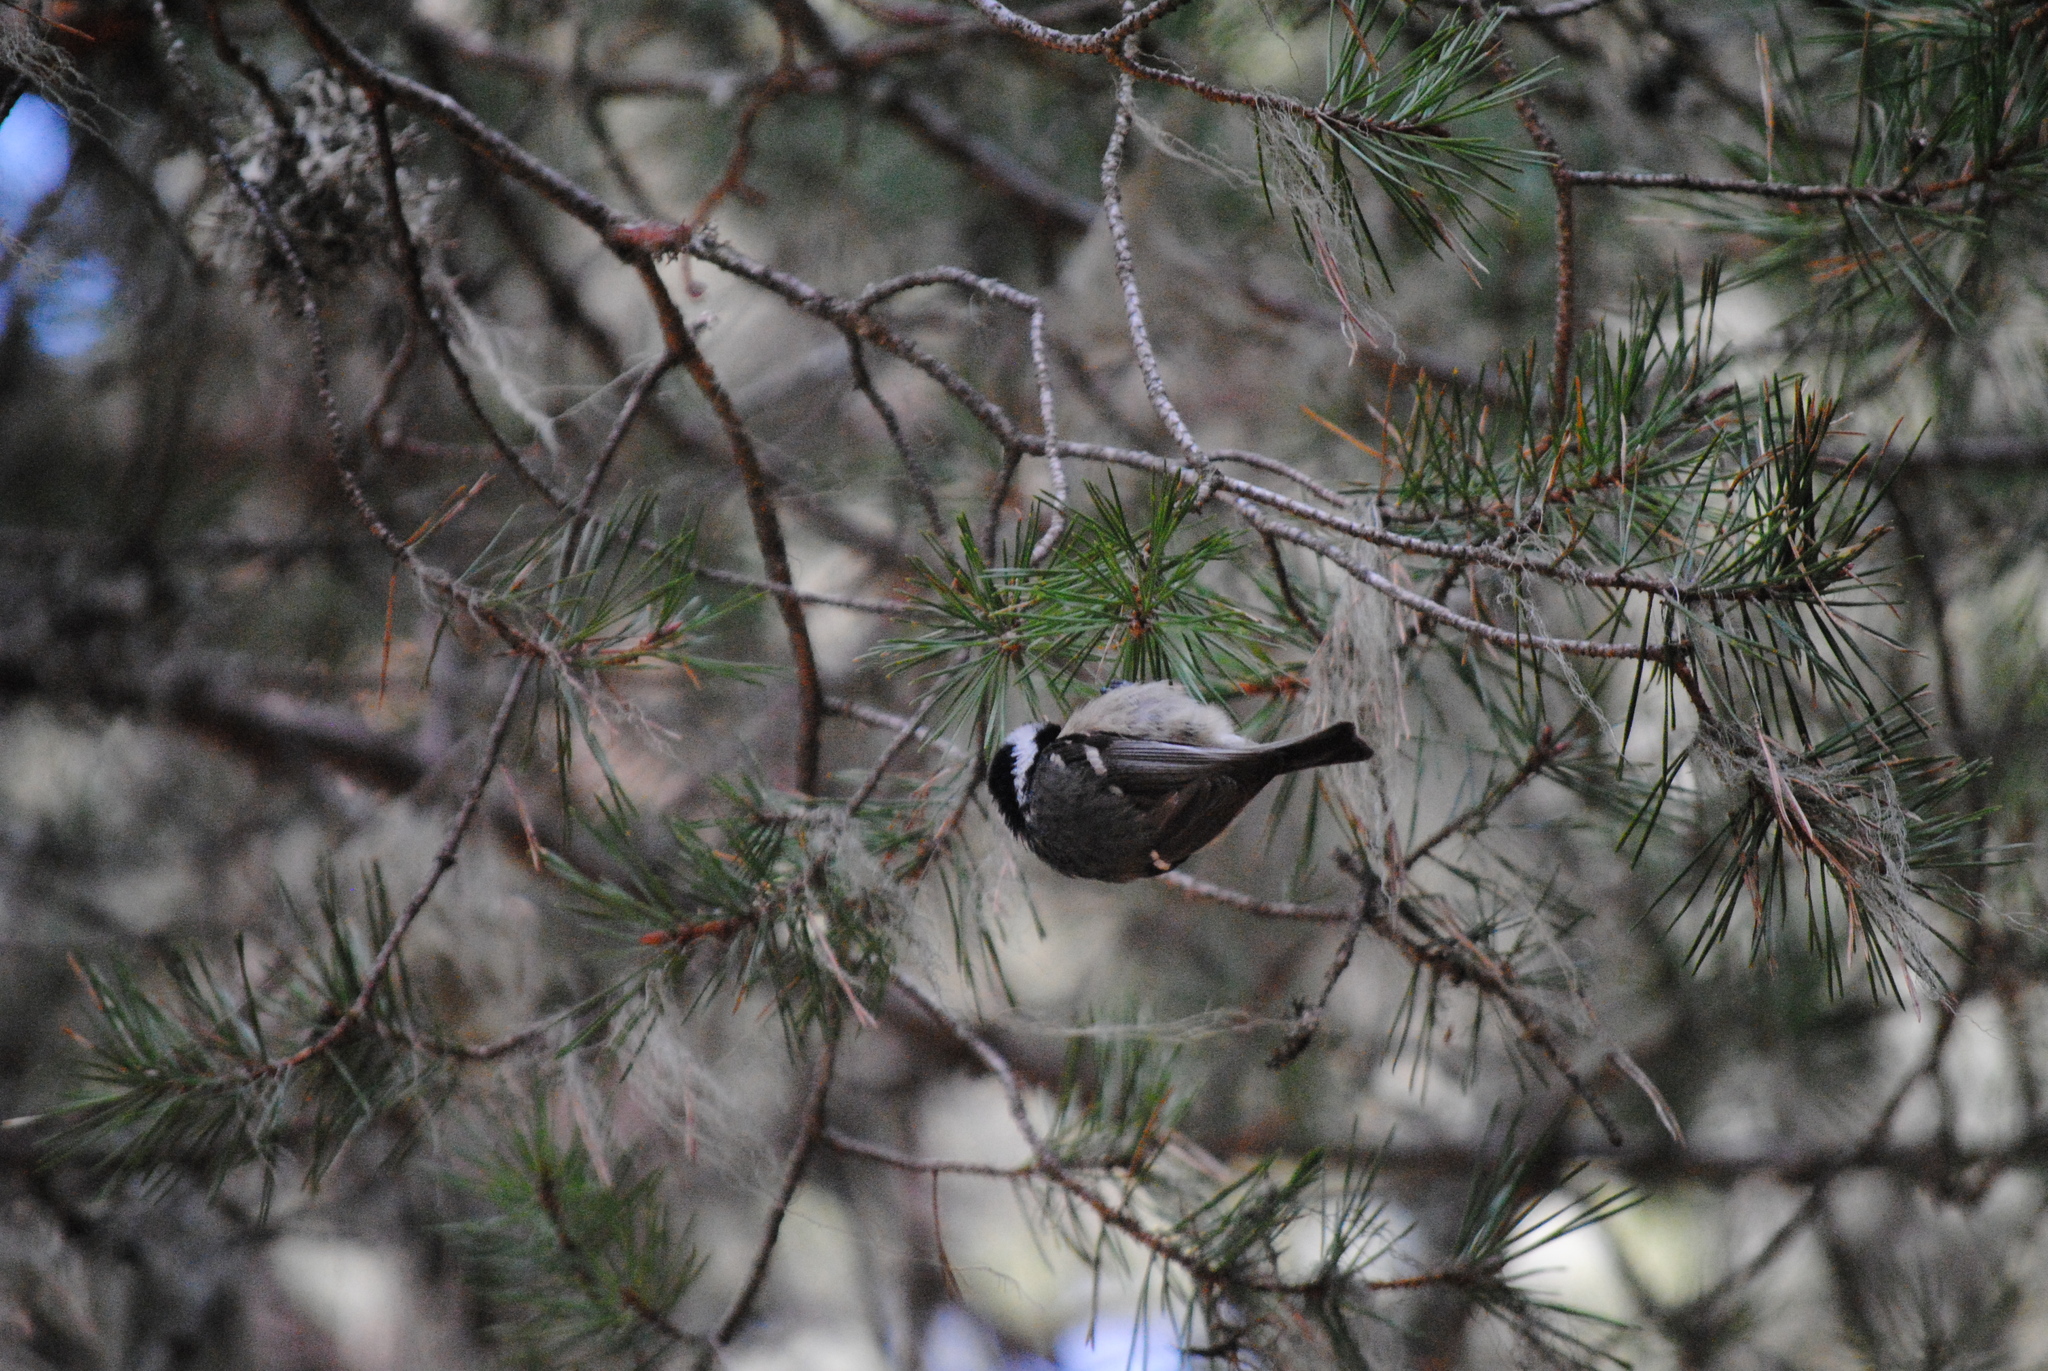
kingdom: Animalia
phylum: Chordata
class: Aves
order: Passeriformes
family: Paridae
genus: Periparus
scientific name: Periparus ater
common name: Coal tit
